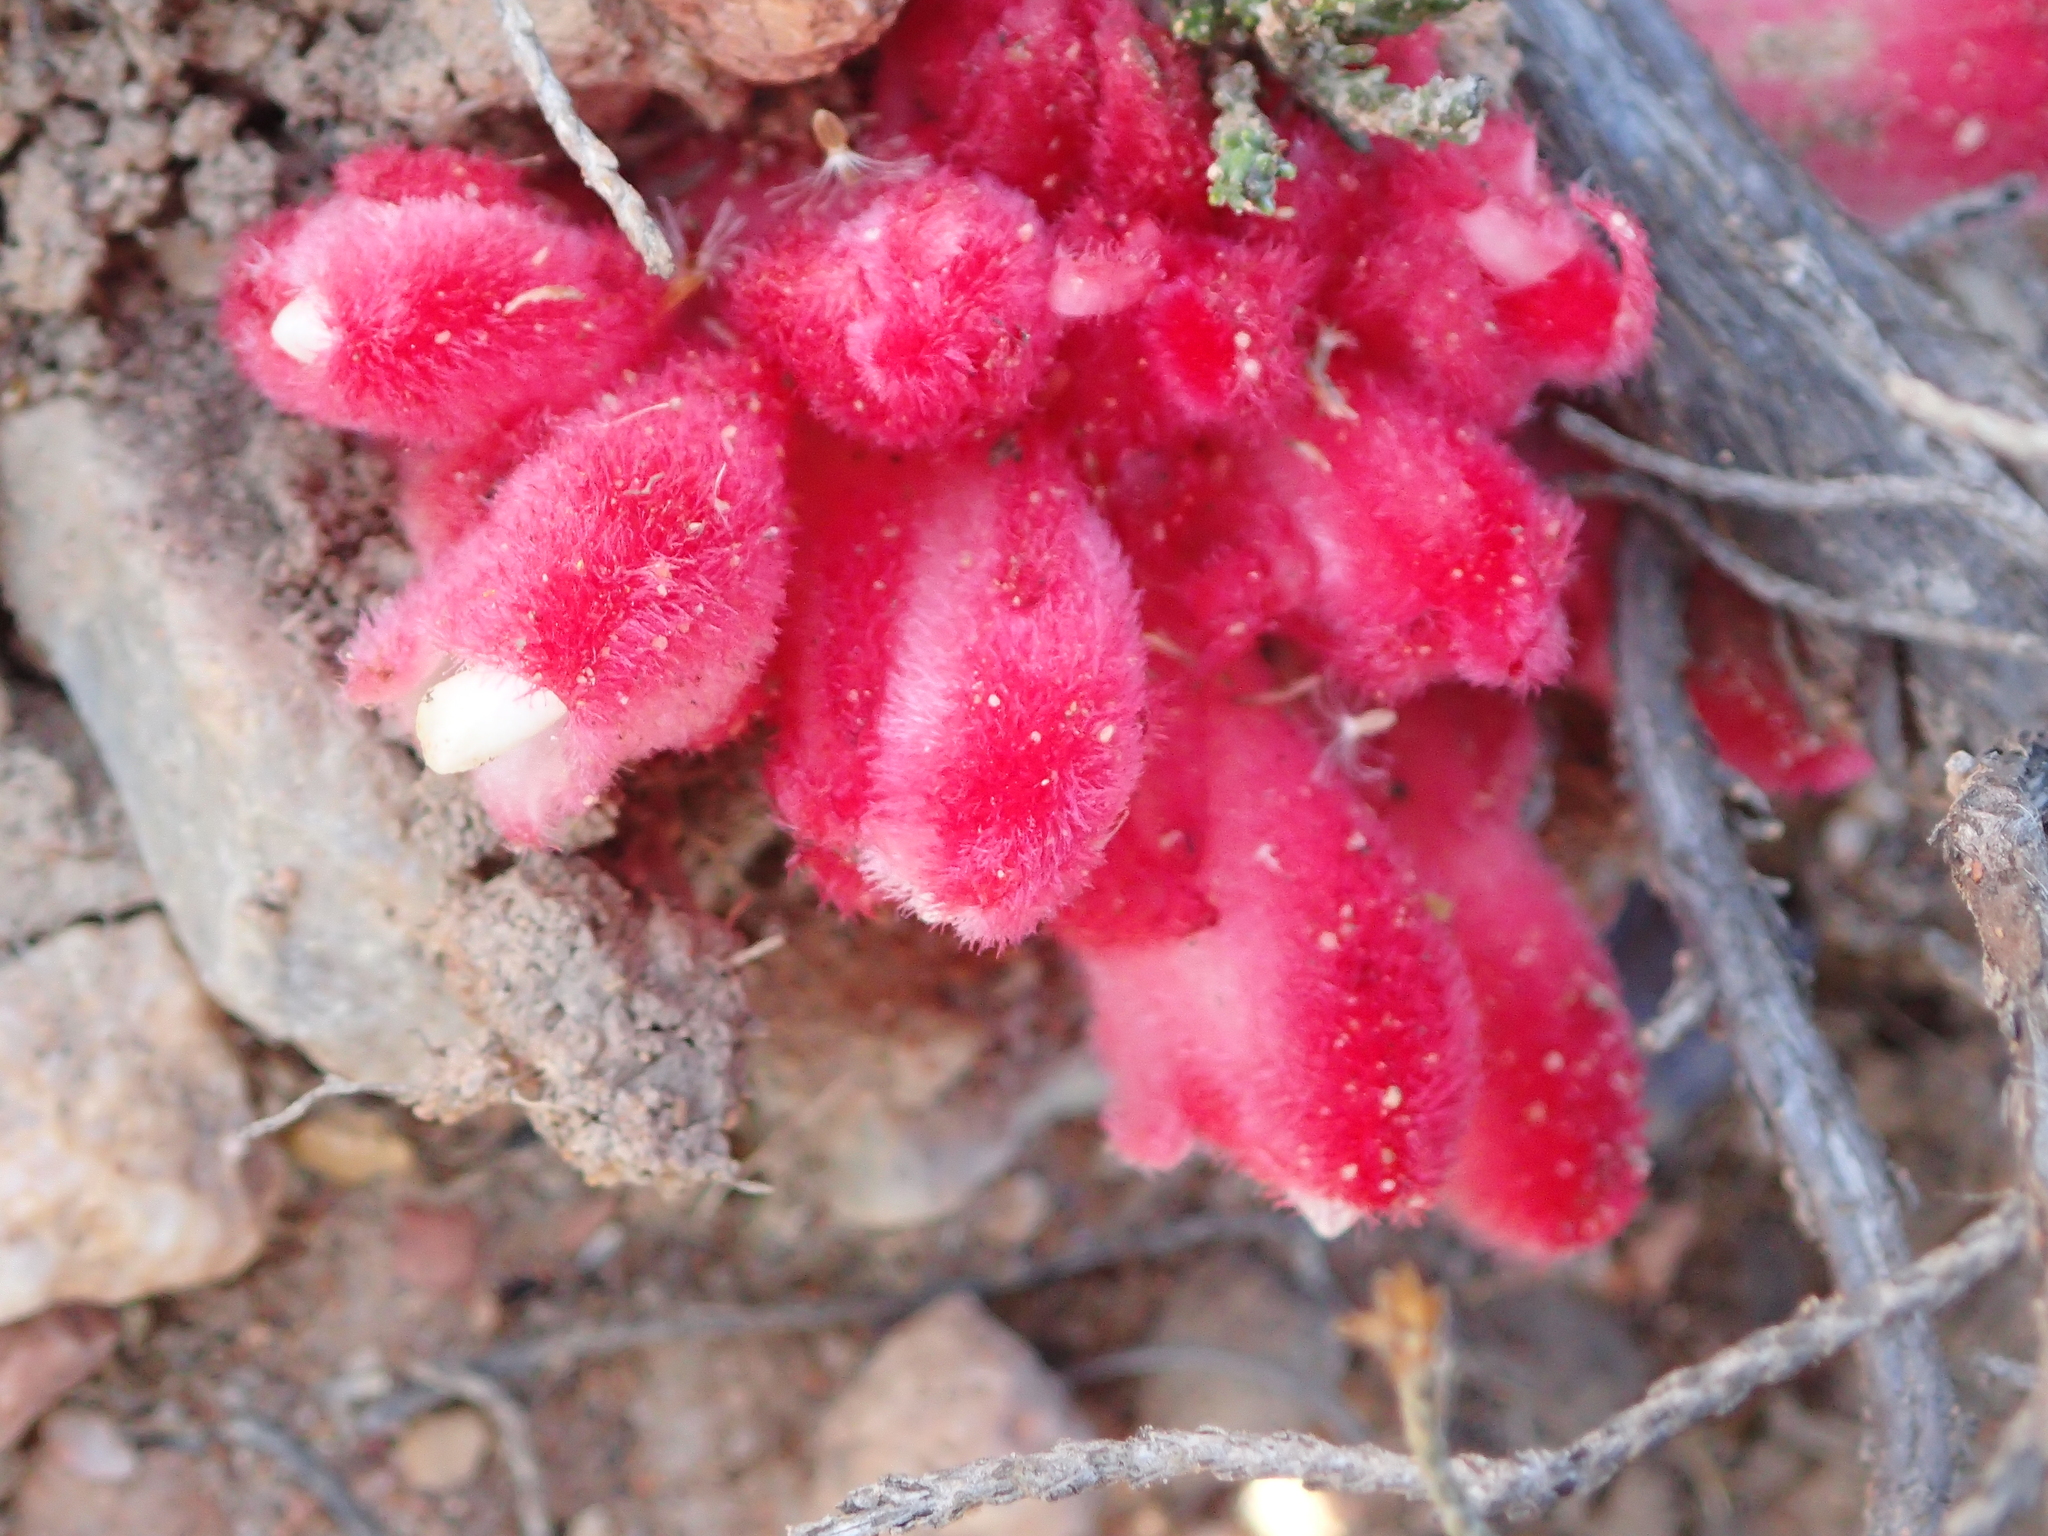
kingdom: Plantae
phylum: Tracheophyta
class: Magnoliopsida
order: Lamiales
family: Orobanchaceae
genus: Hyobanche
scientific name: Hyobanche sanguinea
